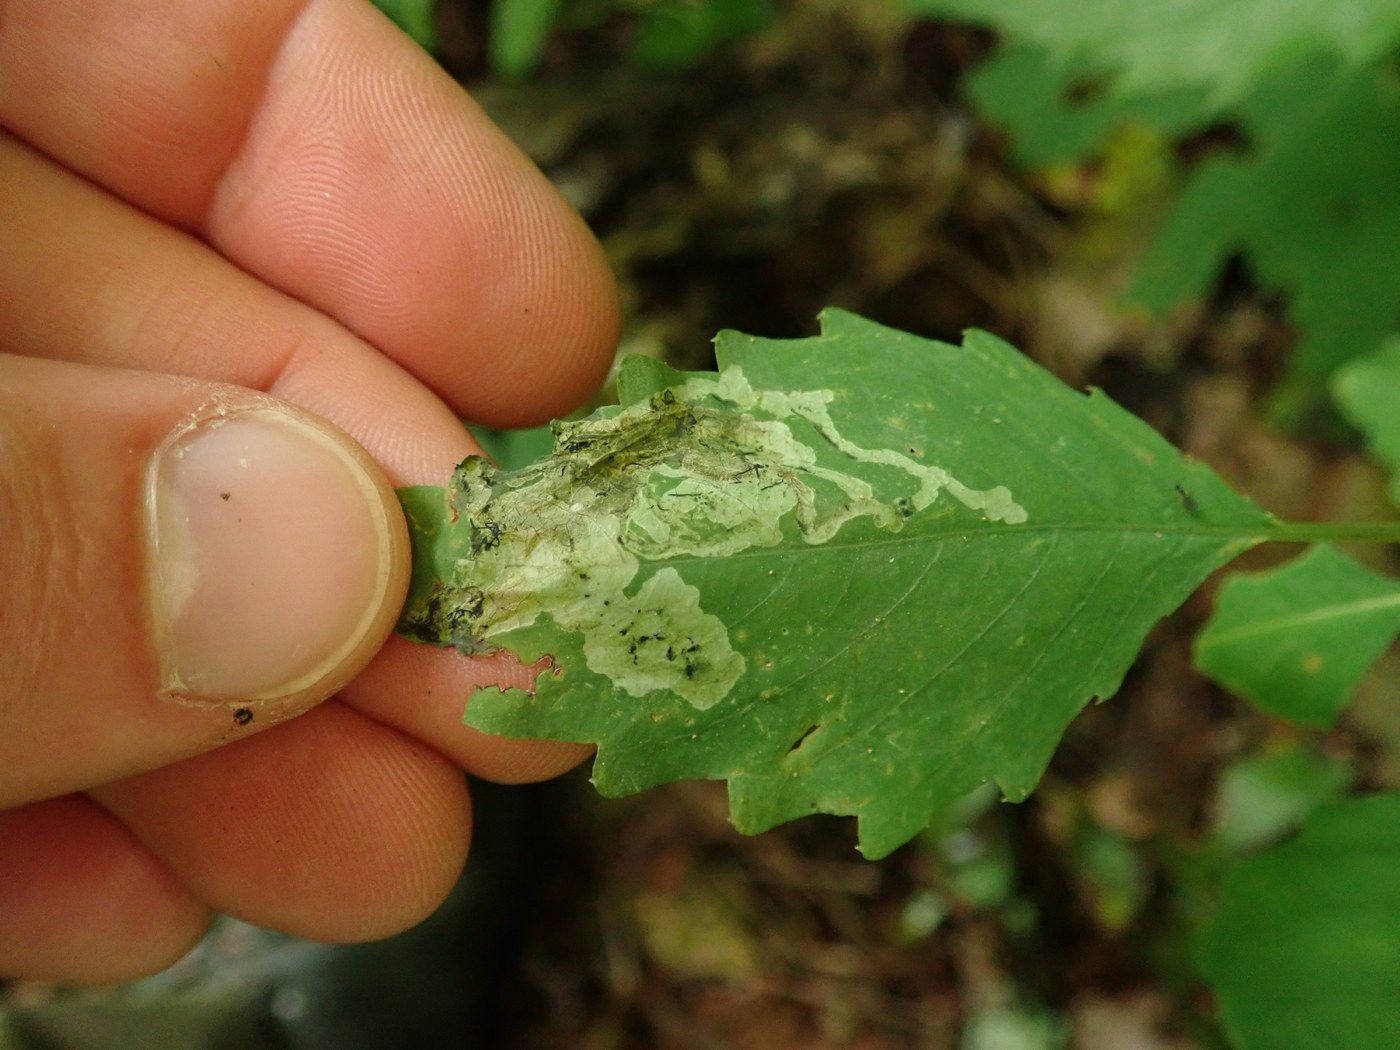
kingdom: Animalia
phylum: Arthropoda
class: Insecta
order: Diptera
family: Agromyzidae
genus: Phytoliriomyza
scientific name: Phytoliriomyza melampyga
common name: Jewelweed leaf-miner fly
